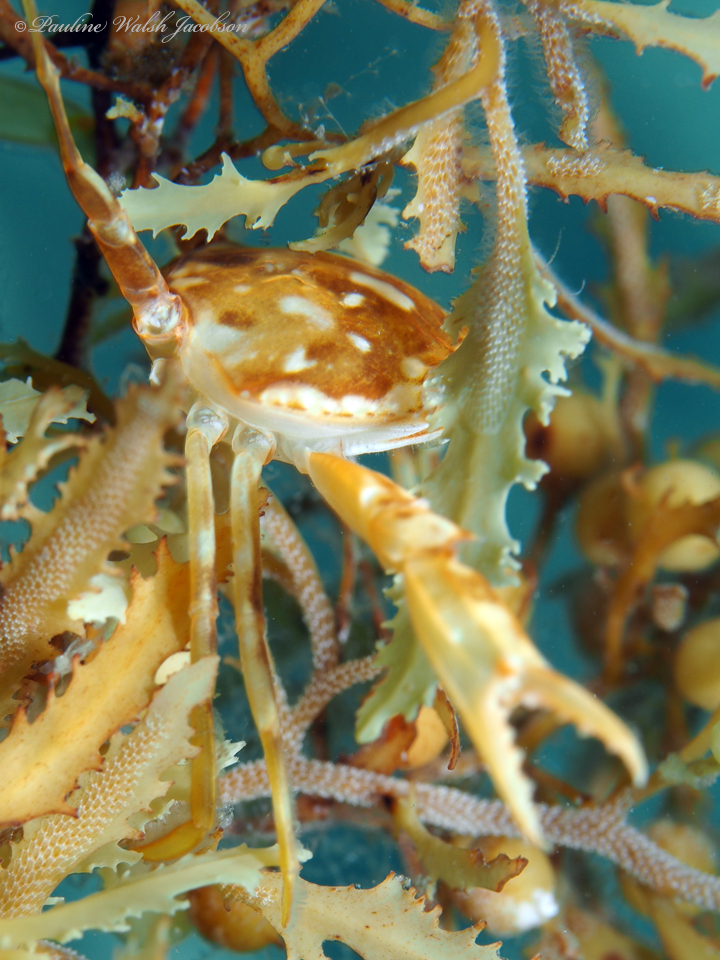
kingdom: Animalia
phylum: Arthropoda
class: Malacostraca
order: Decapoda
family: Portunidae
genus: Portunus
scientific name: Portunus sayi
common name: Sargassum crab
